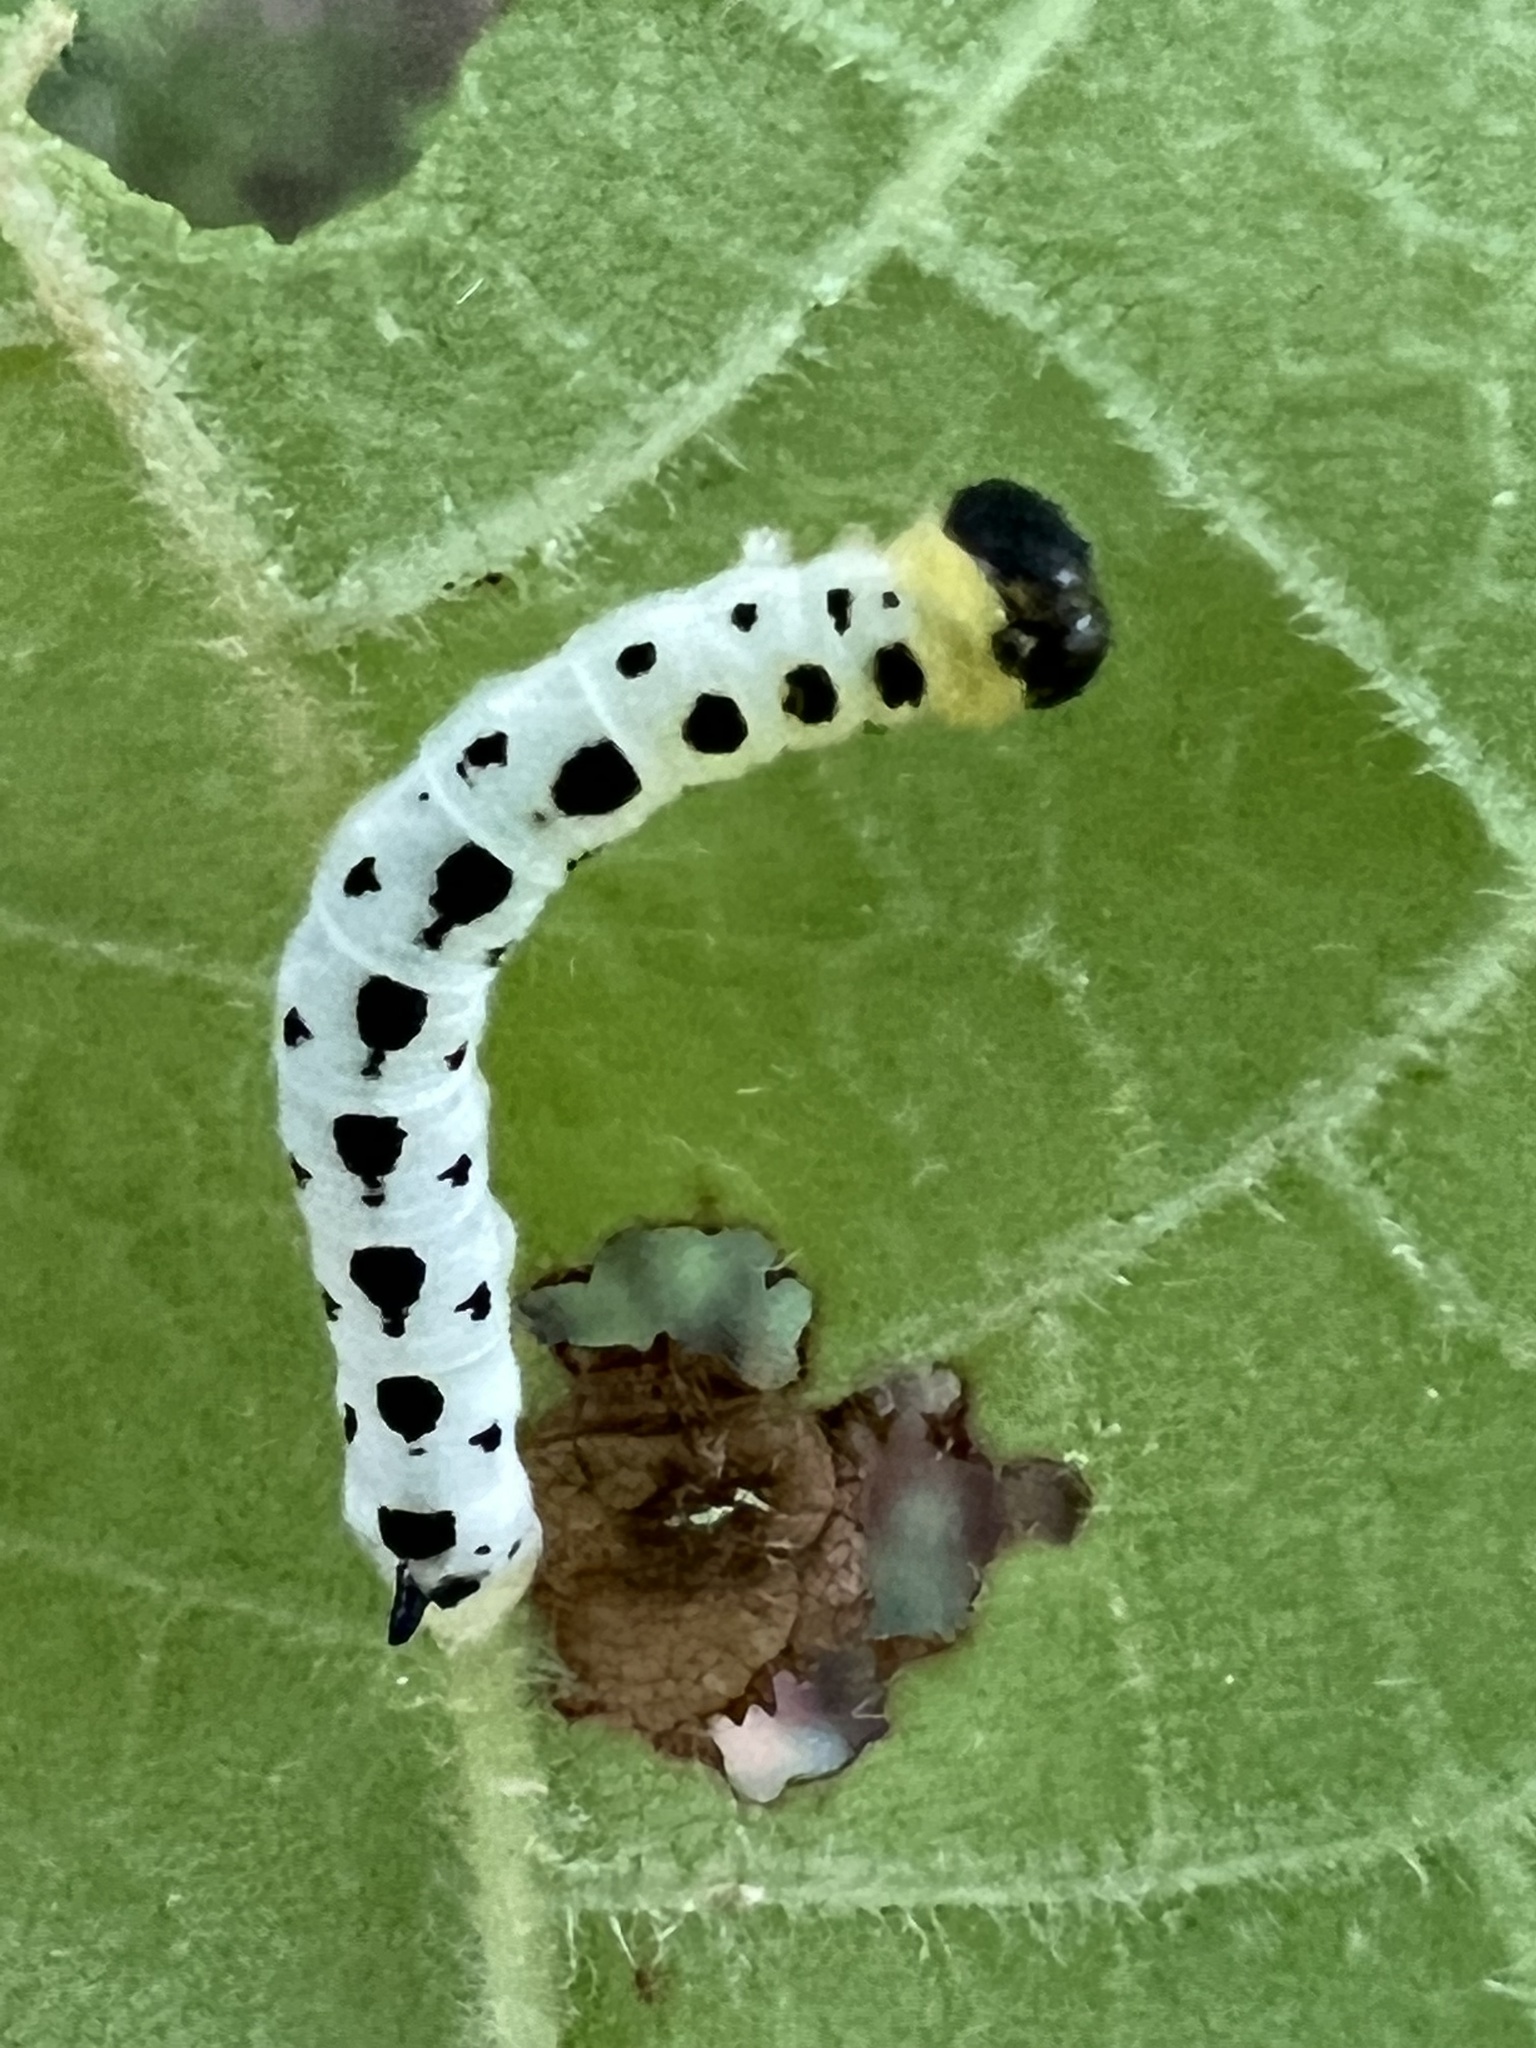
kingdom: Animalia
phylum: Arthropoda
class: Insecta
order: Lepidoptera
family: Sphingidae
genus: Ceratomia
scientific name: Ceratomia catalpae
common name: Catalpa hornworm
